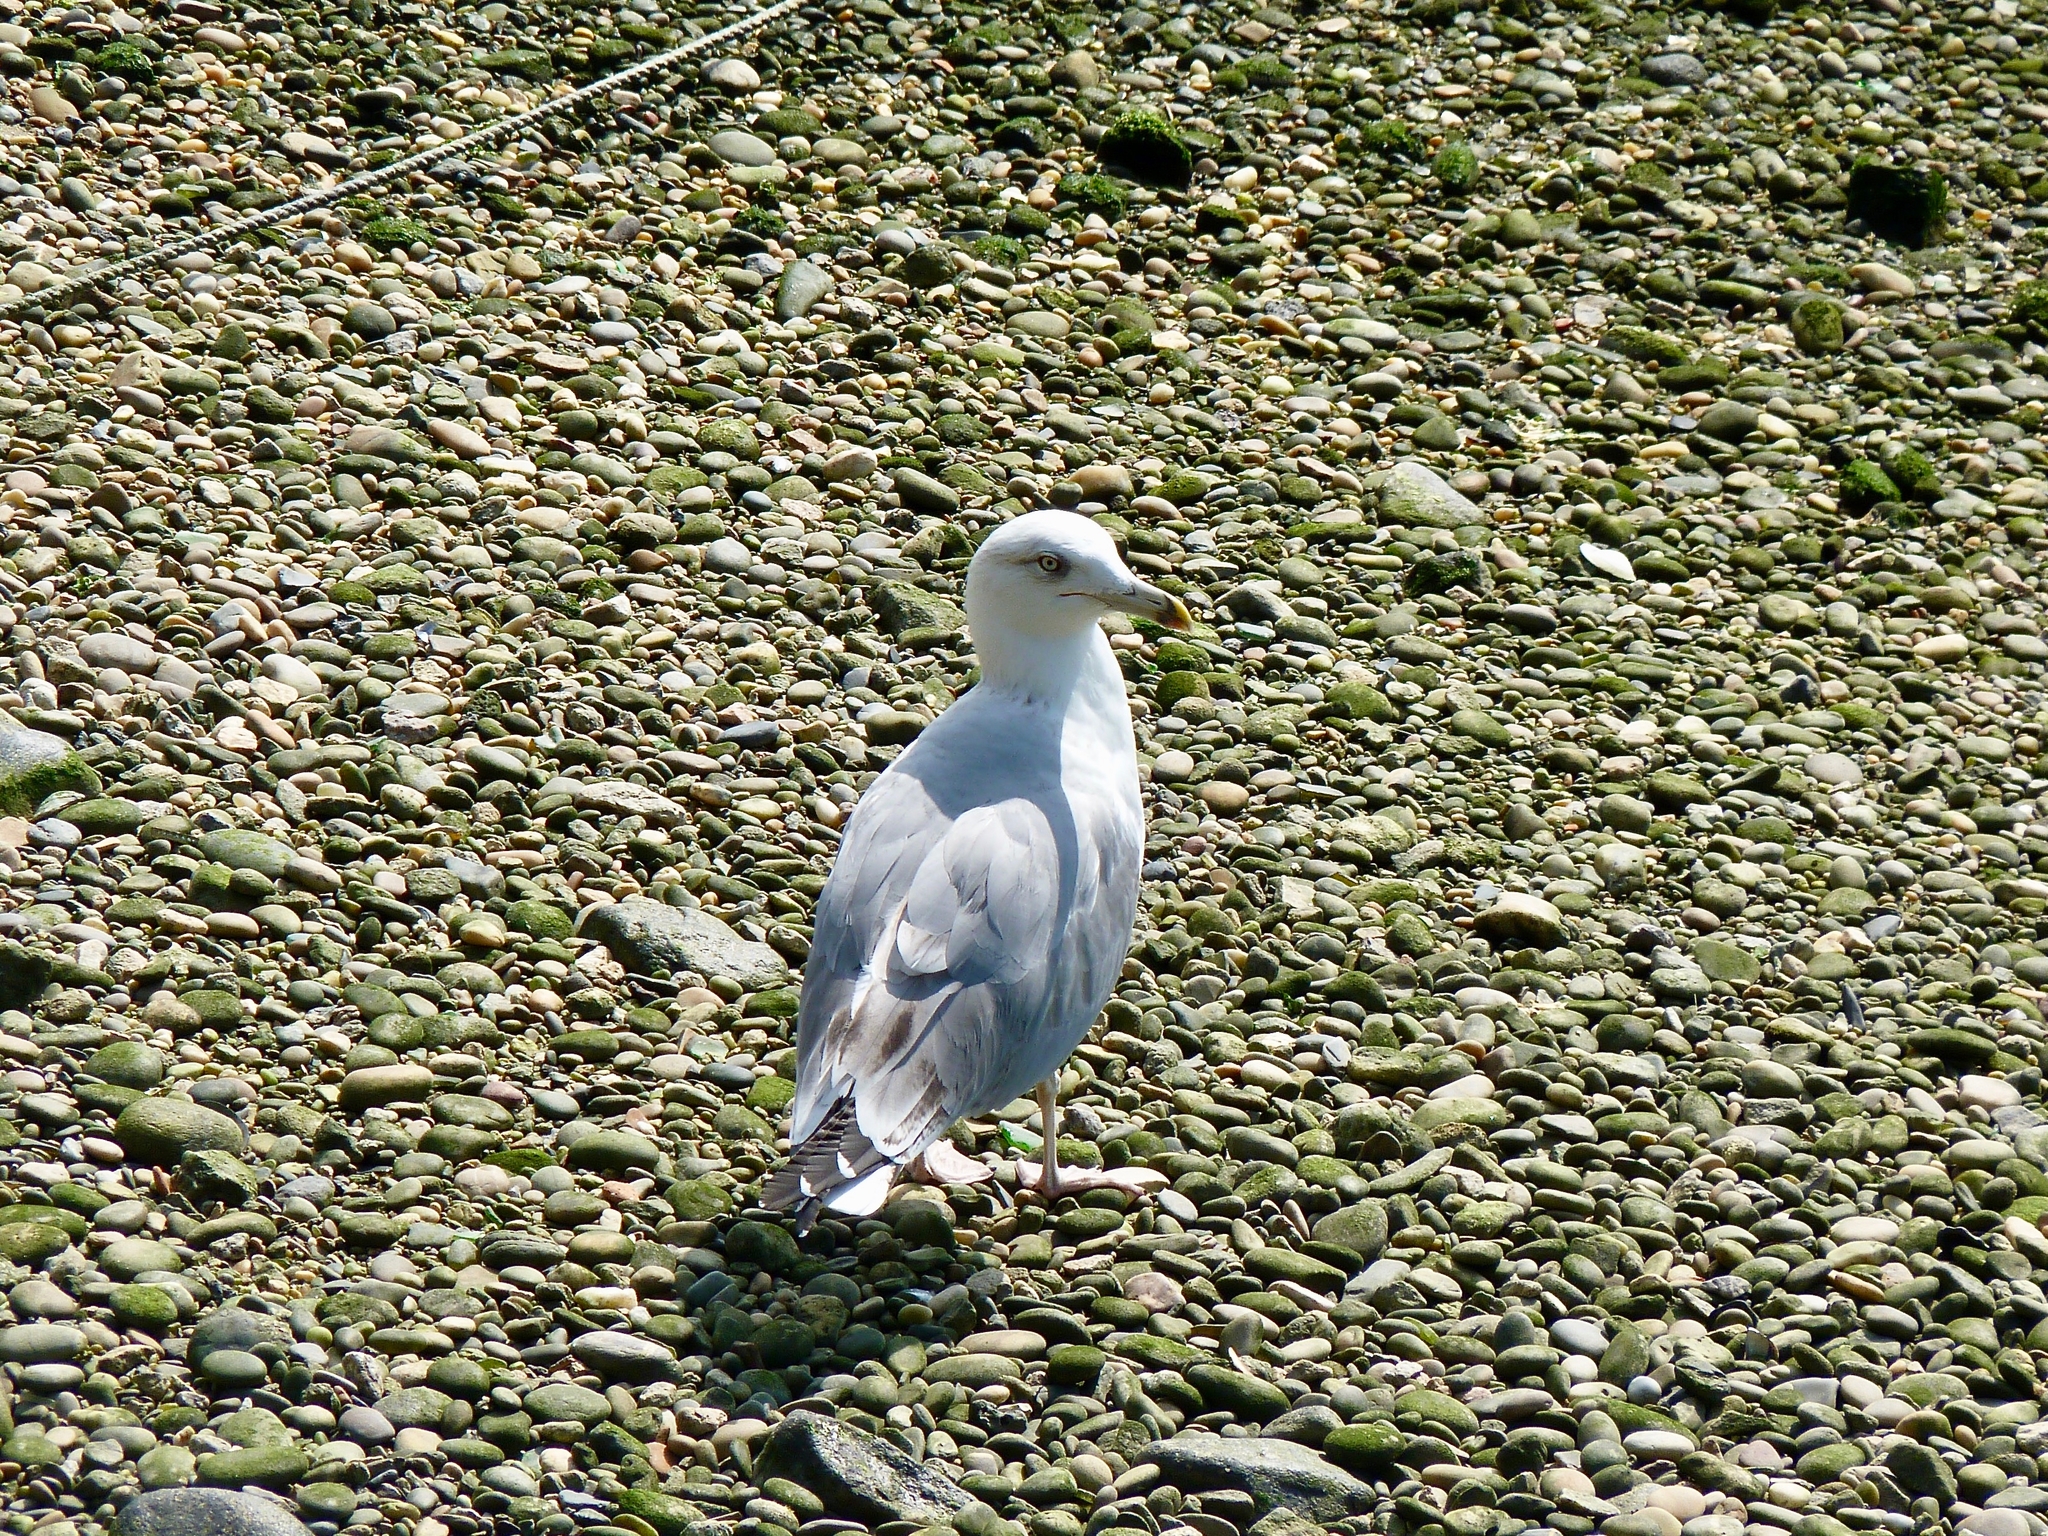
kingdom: Animalia
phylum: Chordata
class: Aves
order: Charadriiformes
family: Laridae
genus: Larus
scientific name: Larus michahellis
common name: Yellow-legged gull
